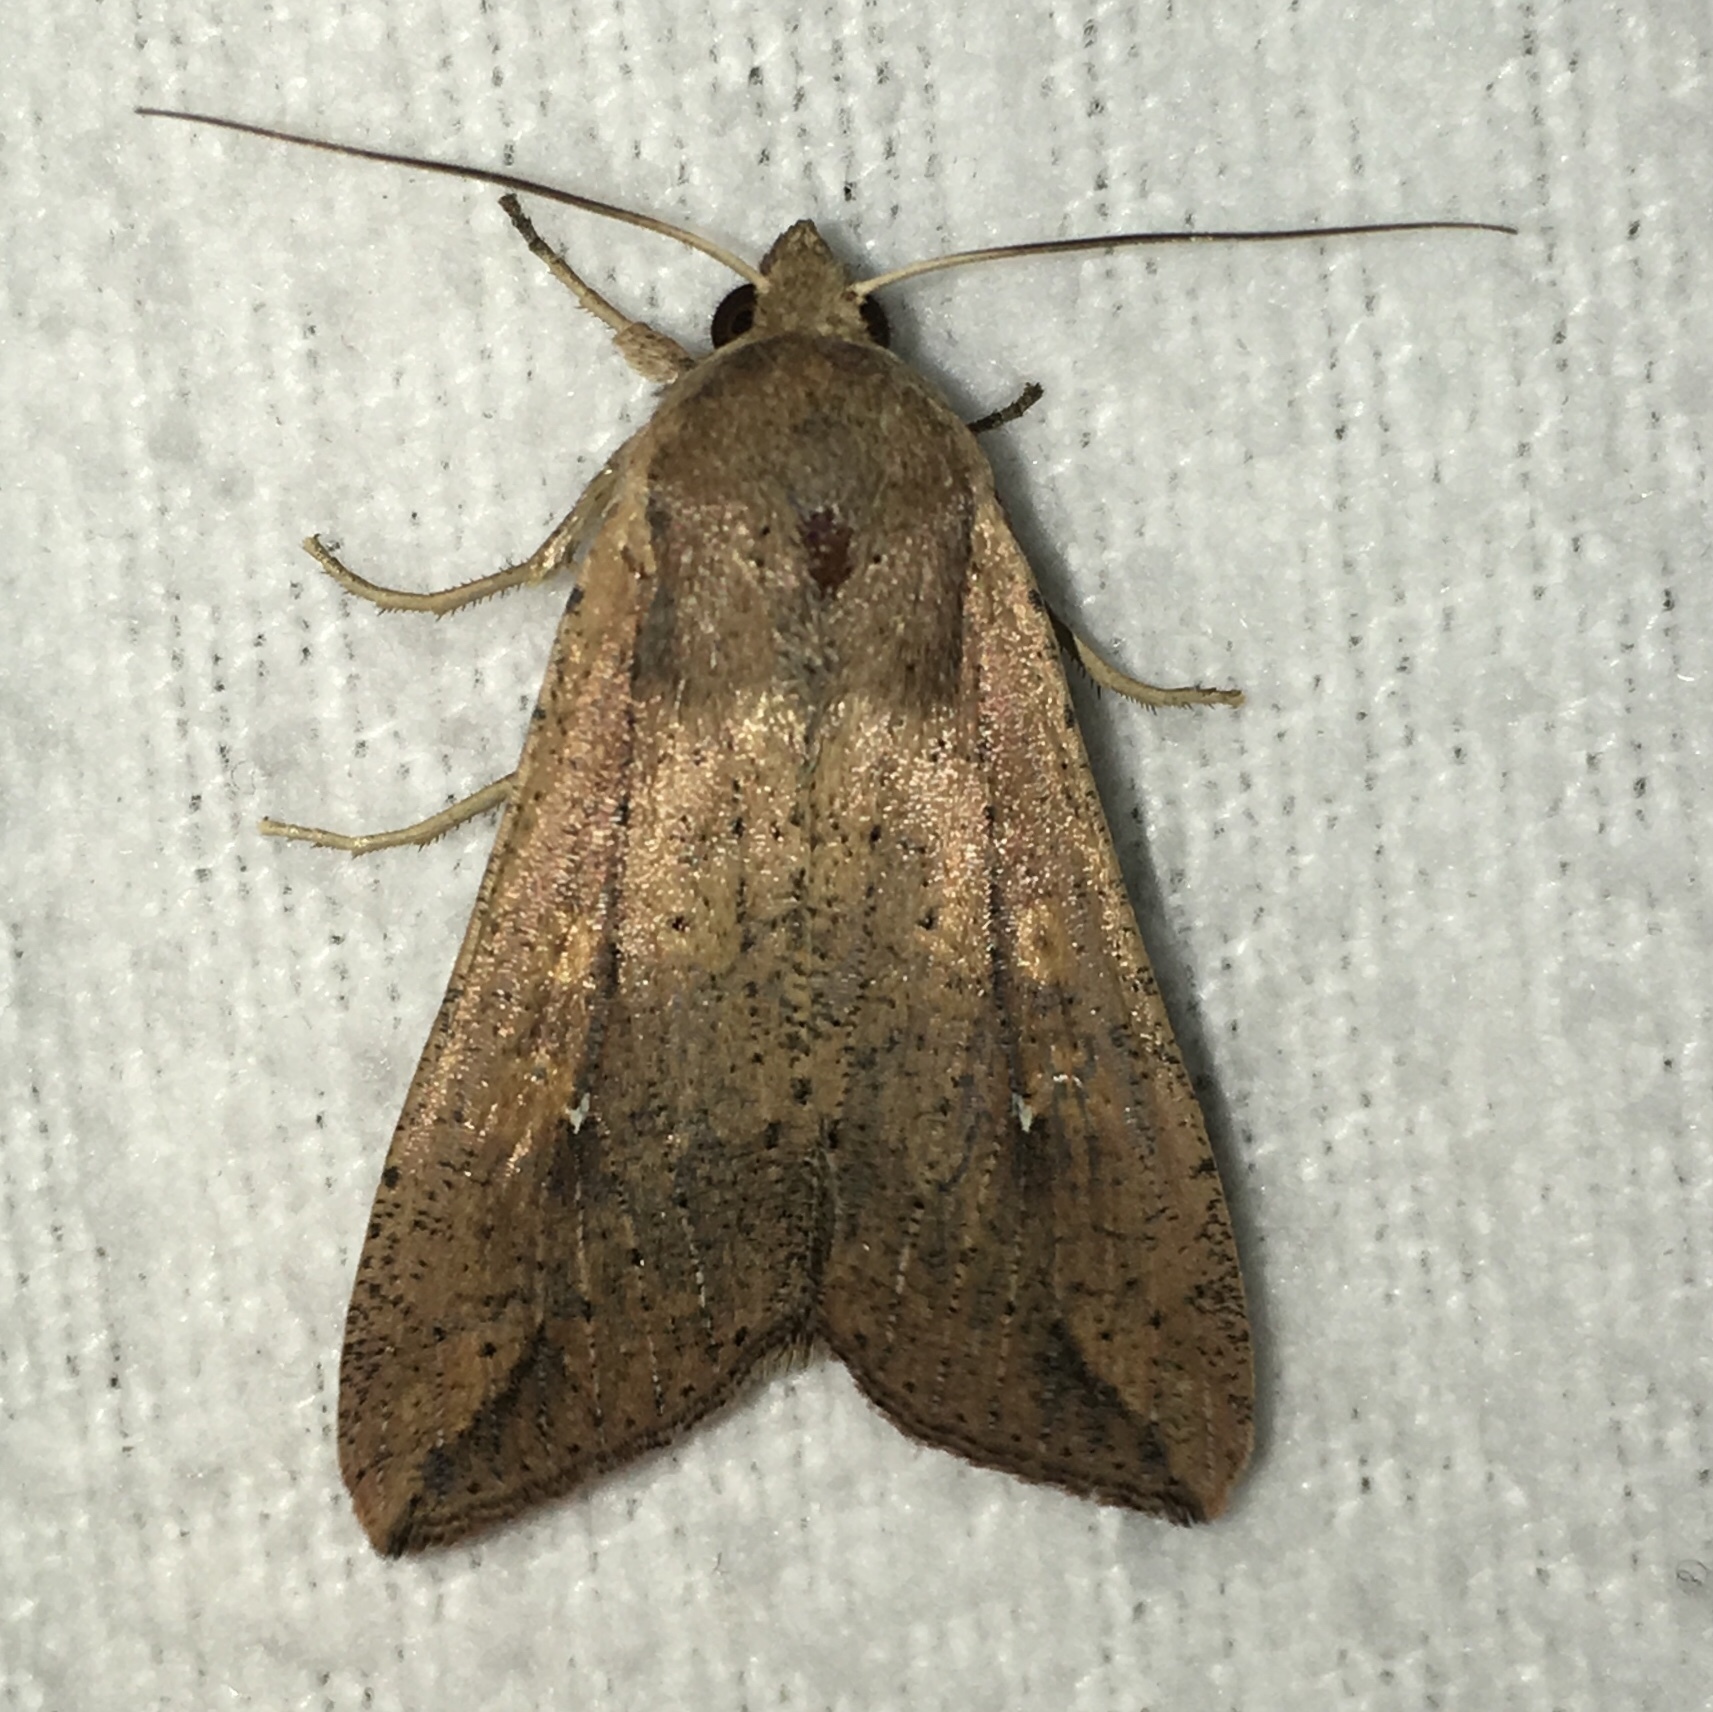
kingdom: Animalia
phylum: Arthropoda
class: Insecta
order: Lepidoptera
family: Noctuidae
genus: Mythimna
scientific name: Mythimna unipuncta
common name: White-speck
